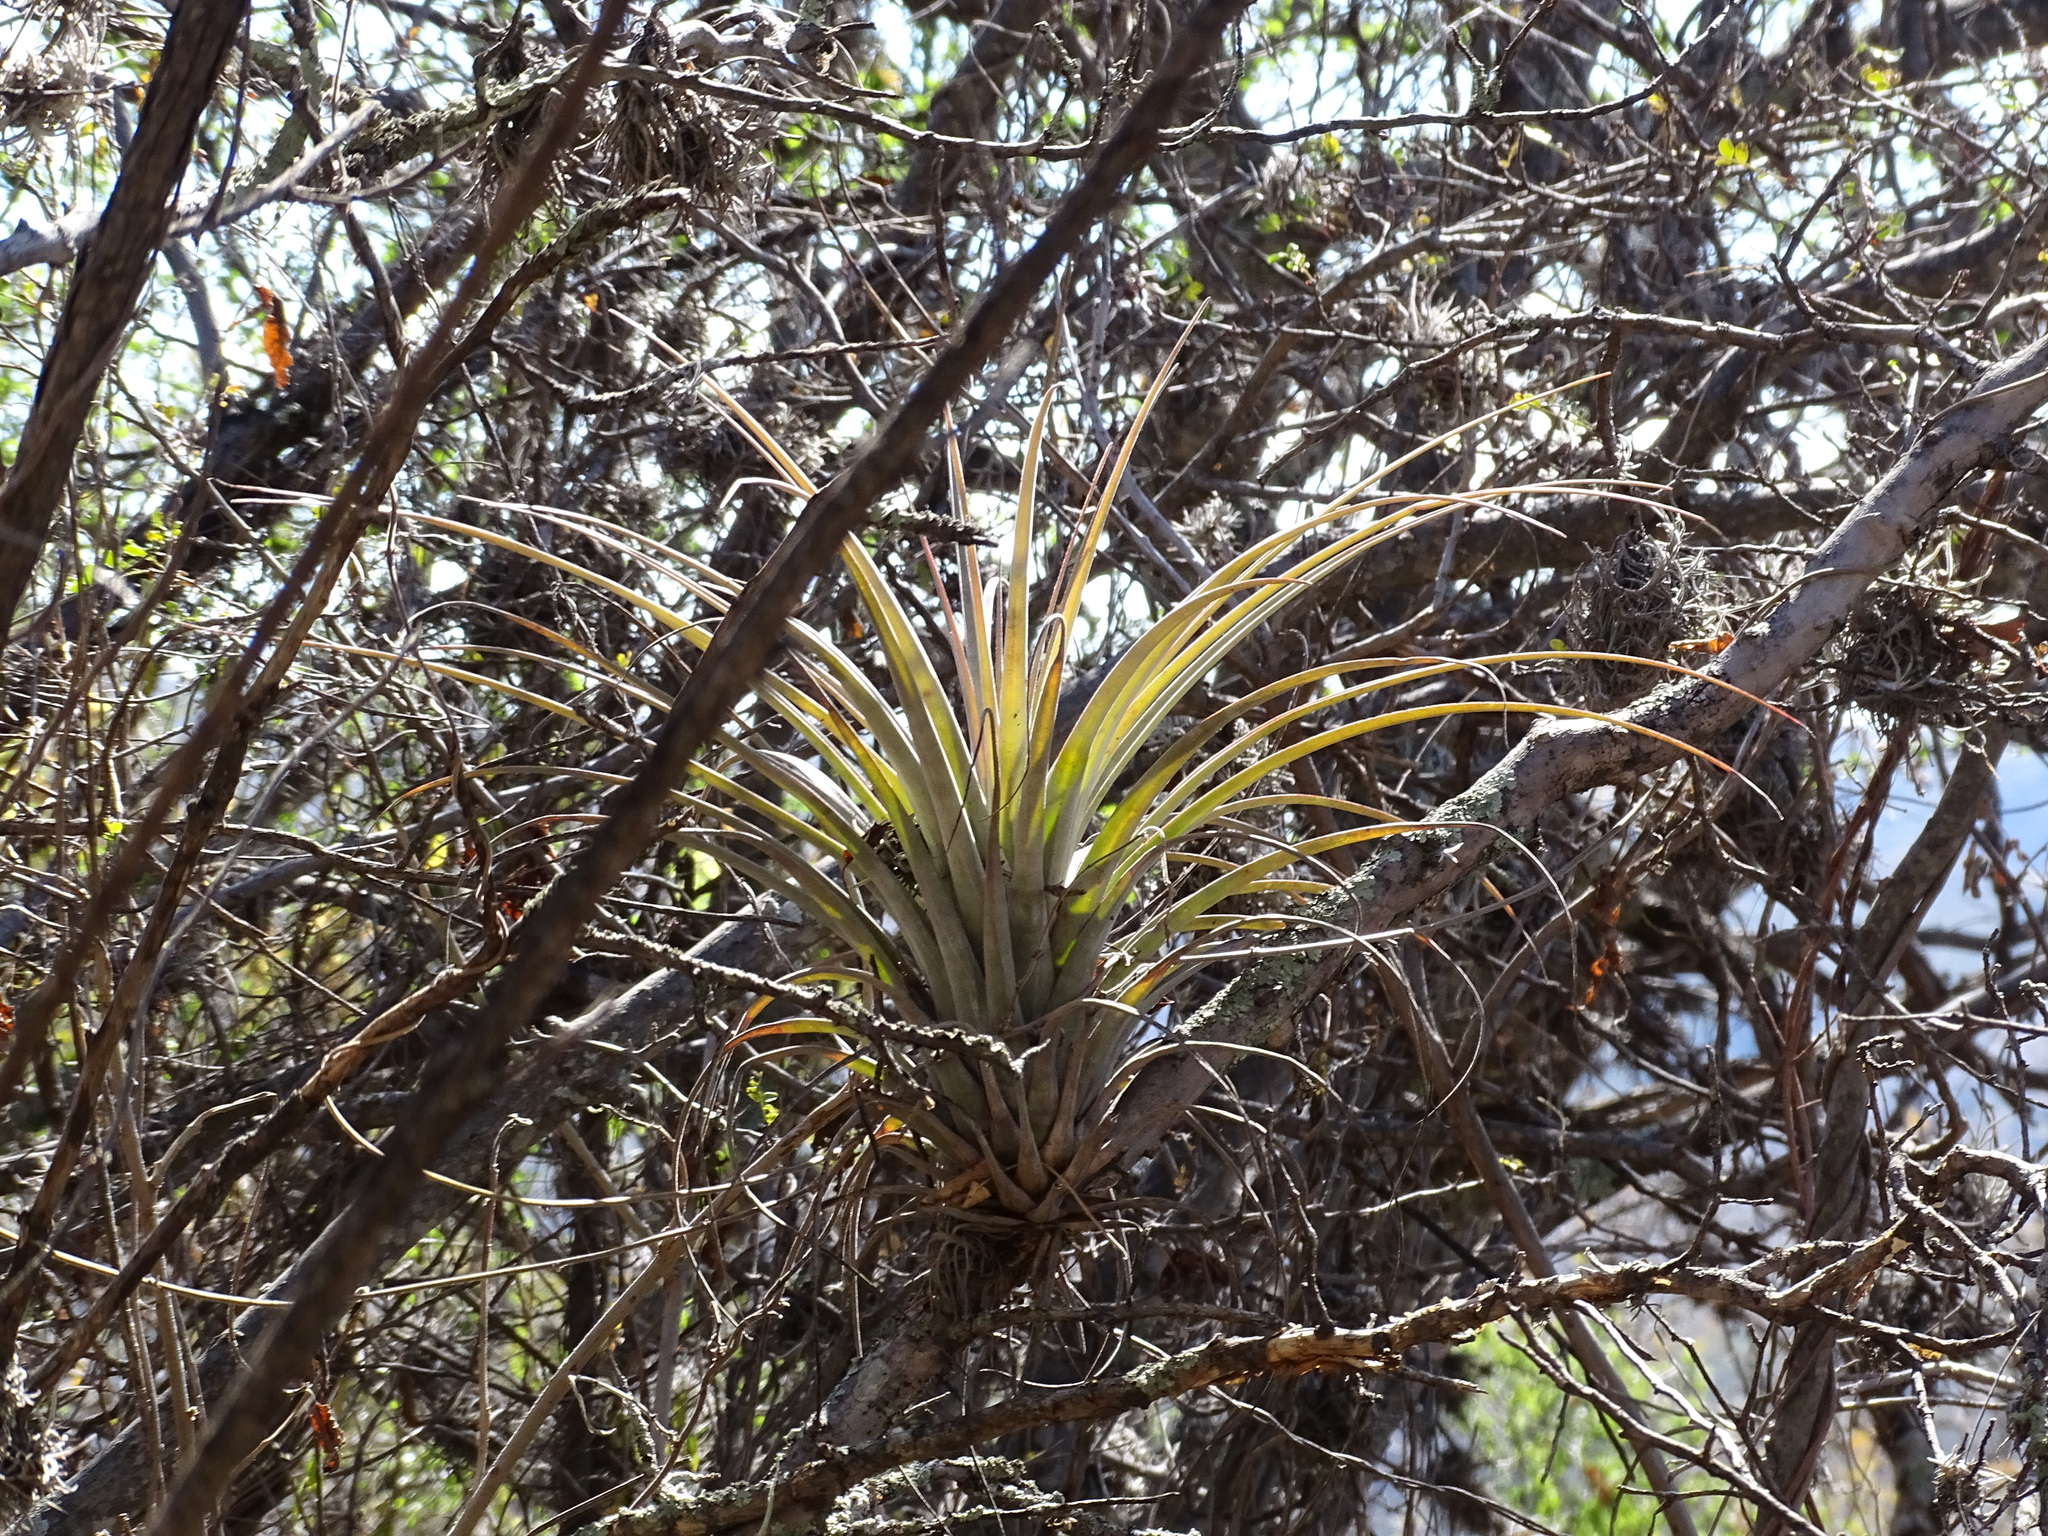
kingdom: Plantae
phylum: Tracheophyta
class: Liliopsida
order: Poales
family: Bromeliaceae
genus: Tillandsia
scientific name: Tillandsia dugesii
